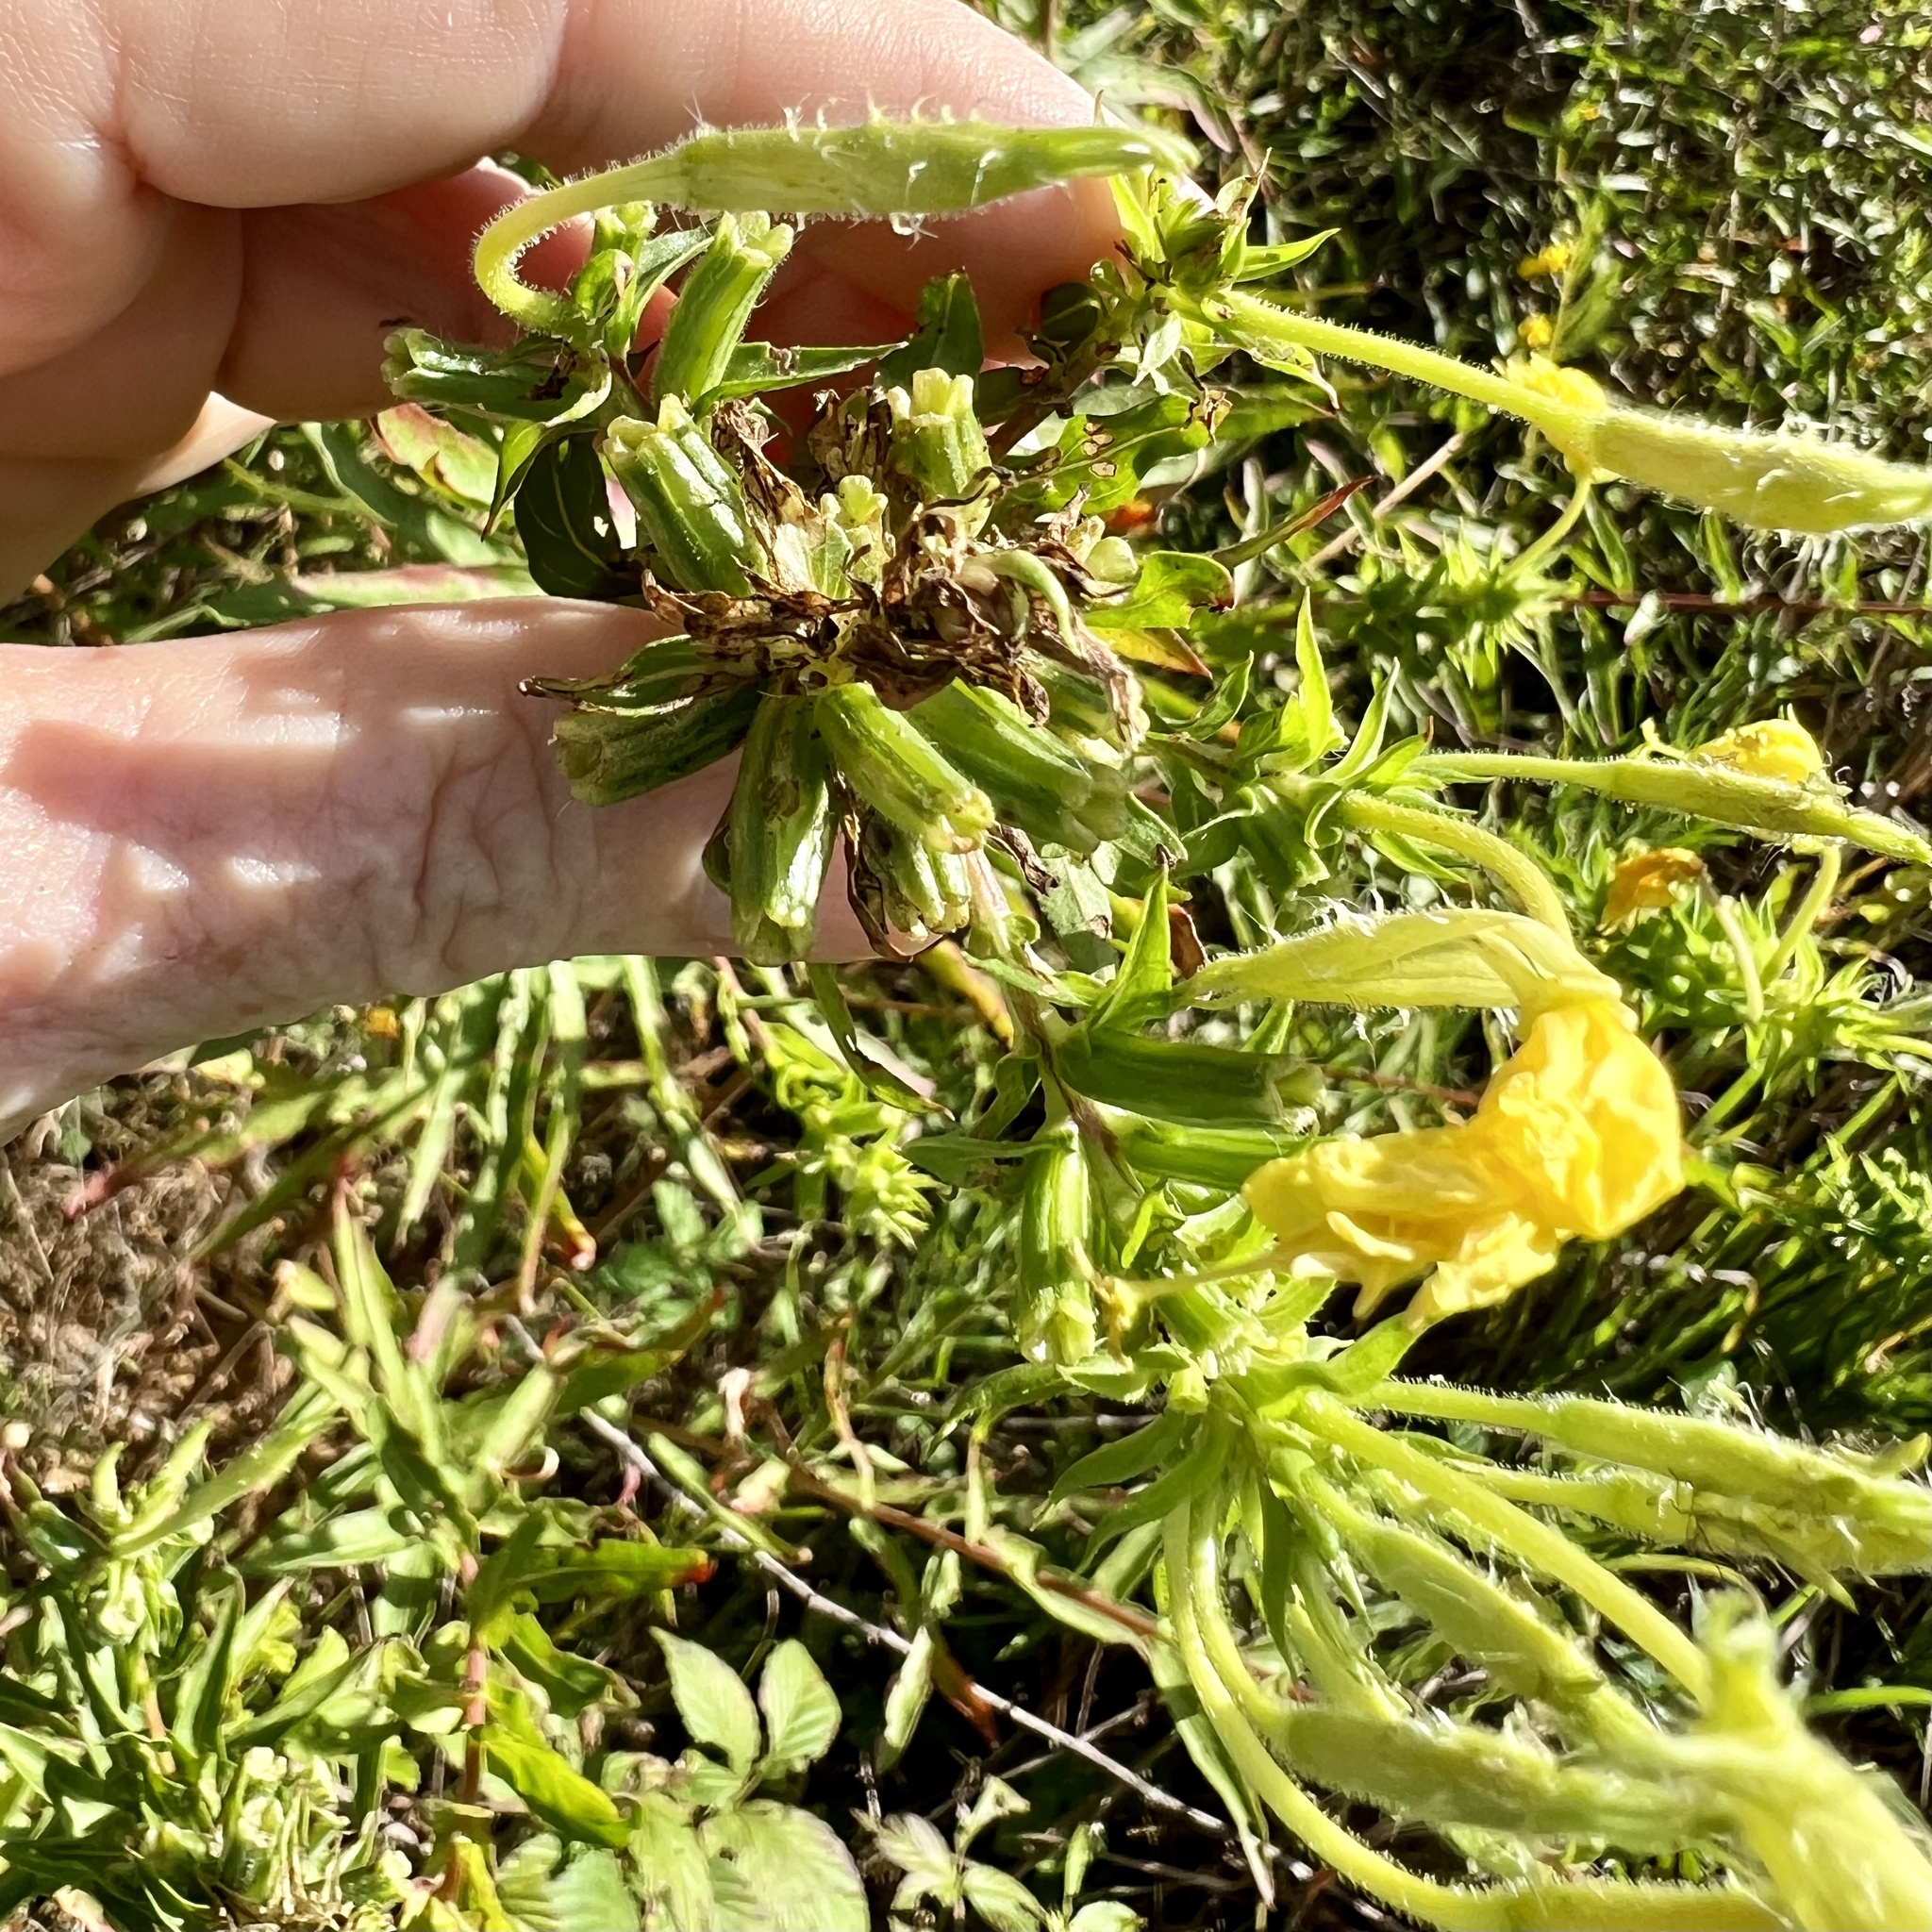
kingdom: Plantae
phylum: Tracheophyta
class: Magnoliopsida
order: Myrtales
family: Onagraceae
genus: Oenothera
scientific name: Oenothera heterophylla
